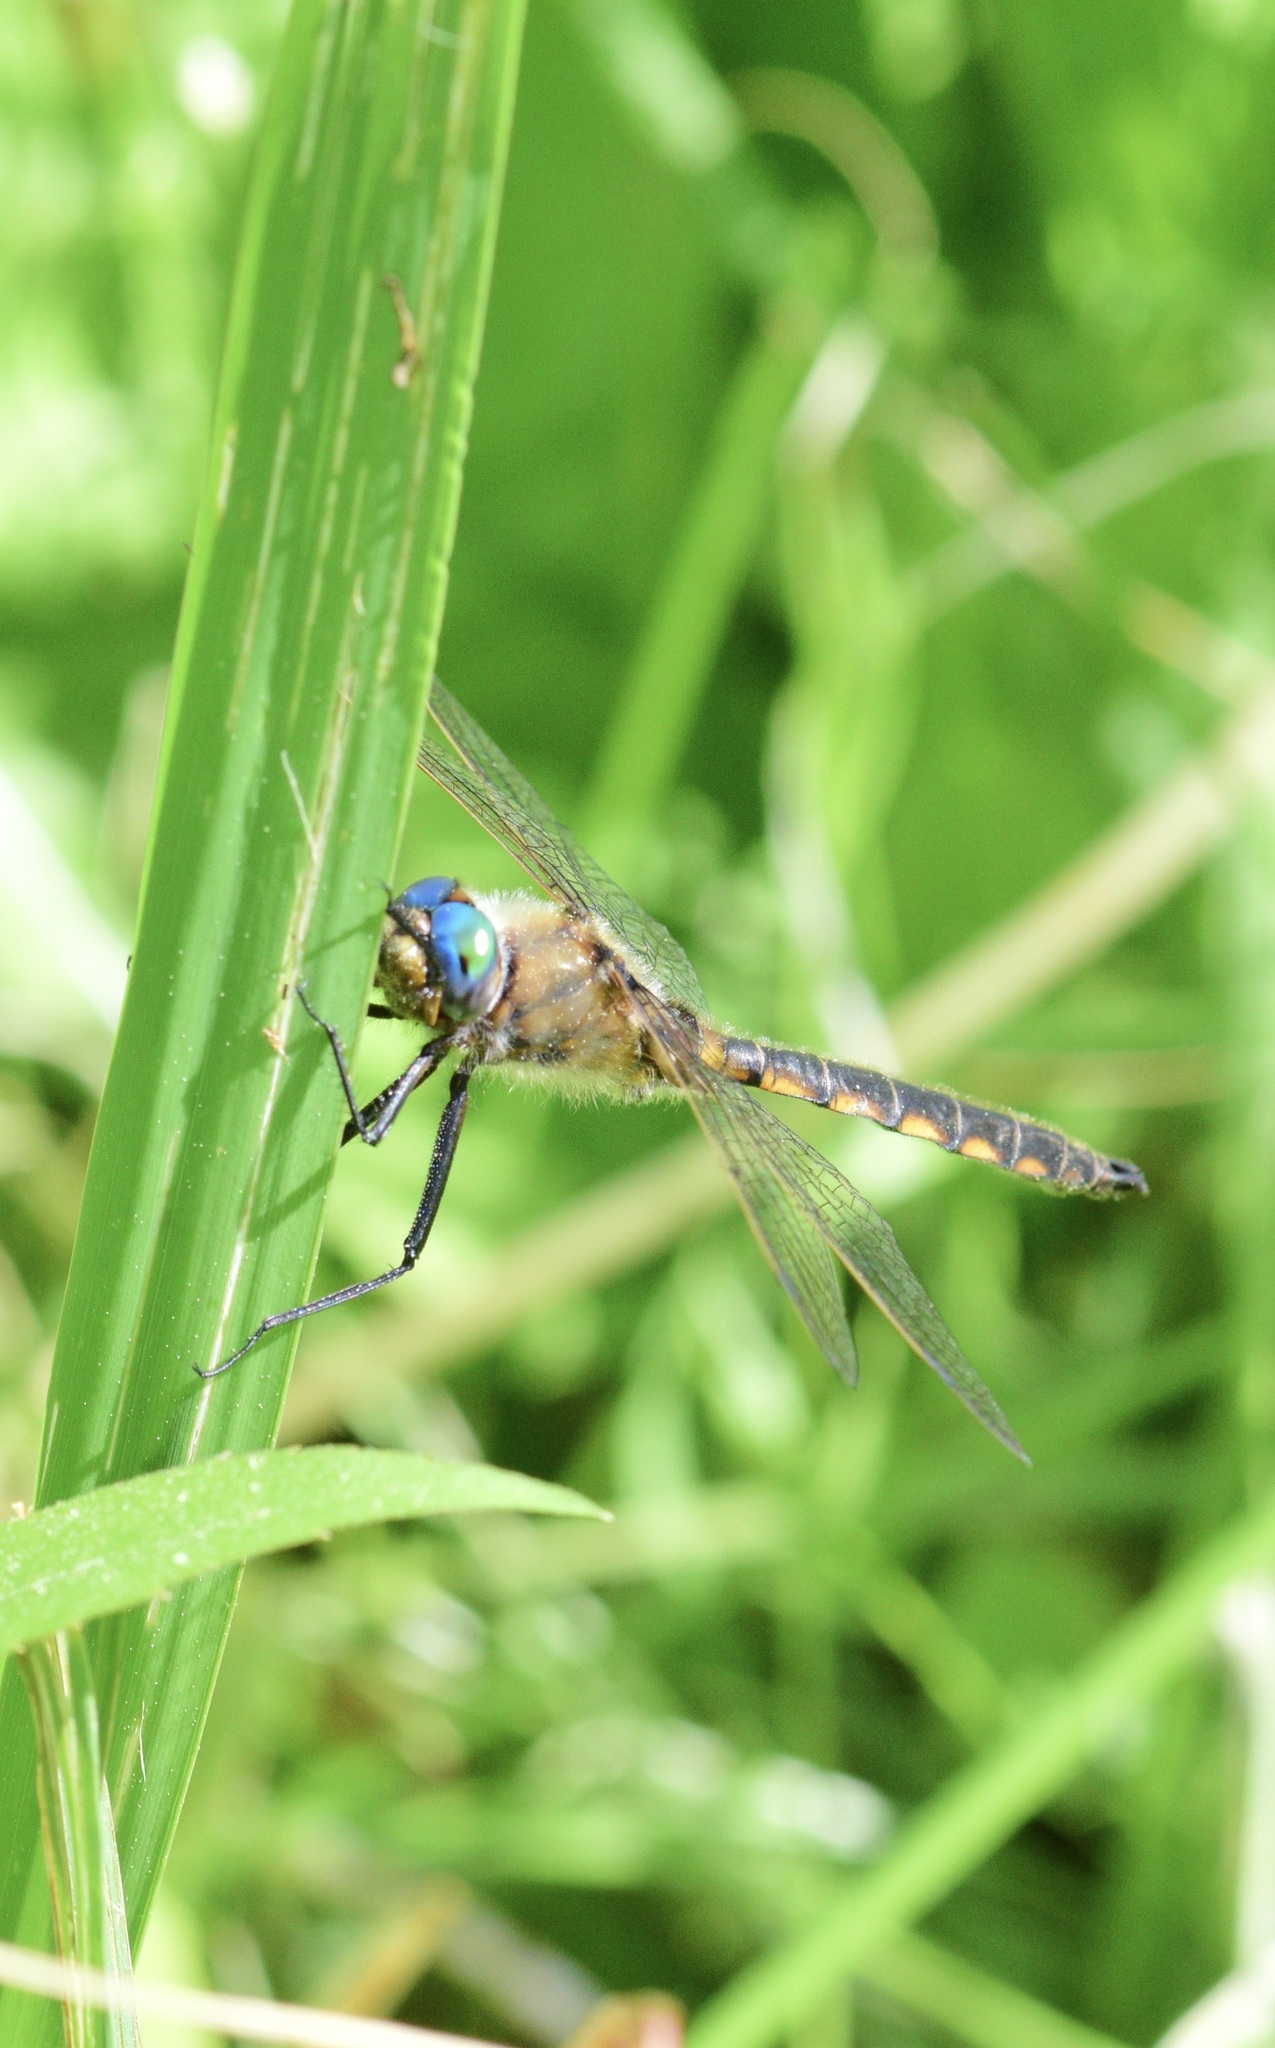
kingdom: Animalia
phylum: Arthropoda
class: Insecta
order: Odonata
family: Corduliidae
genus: Epitheca
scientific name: Epitheca canis
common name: Beaverpond baskettail
